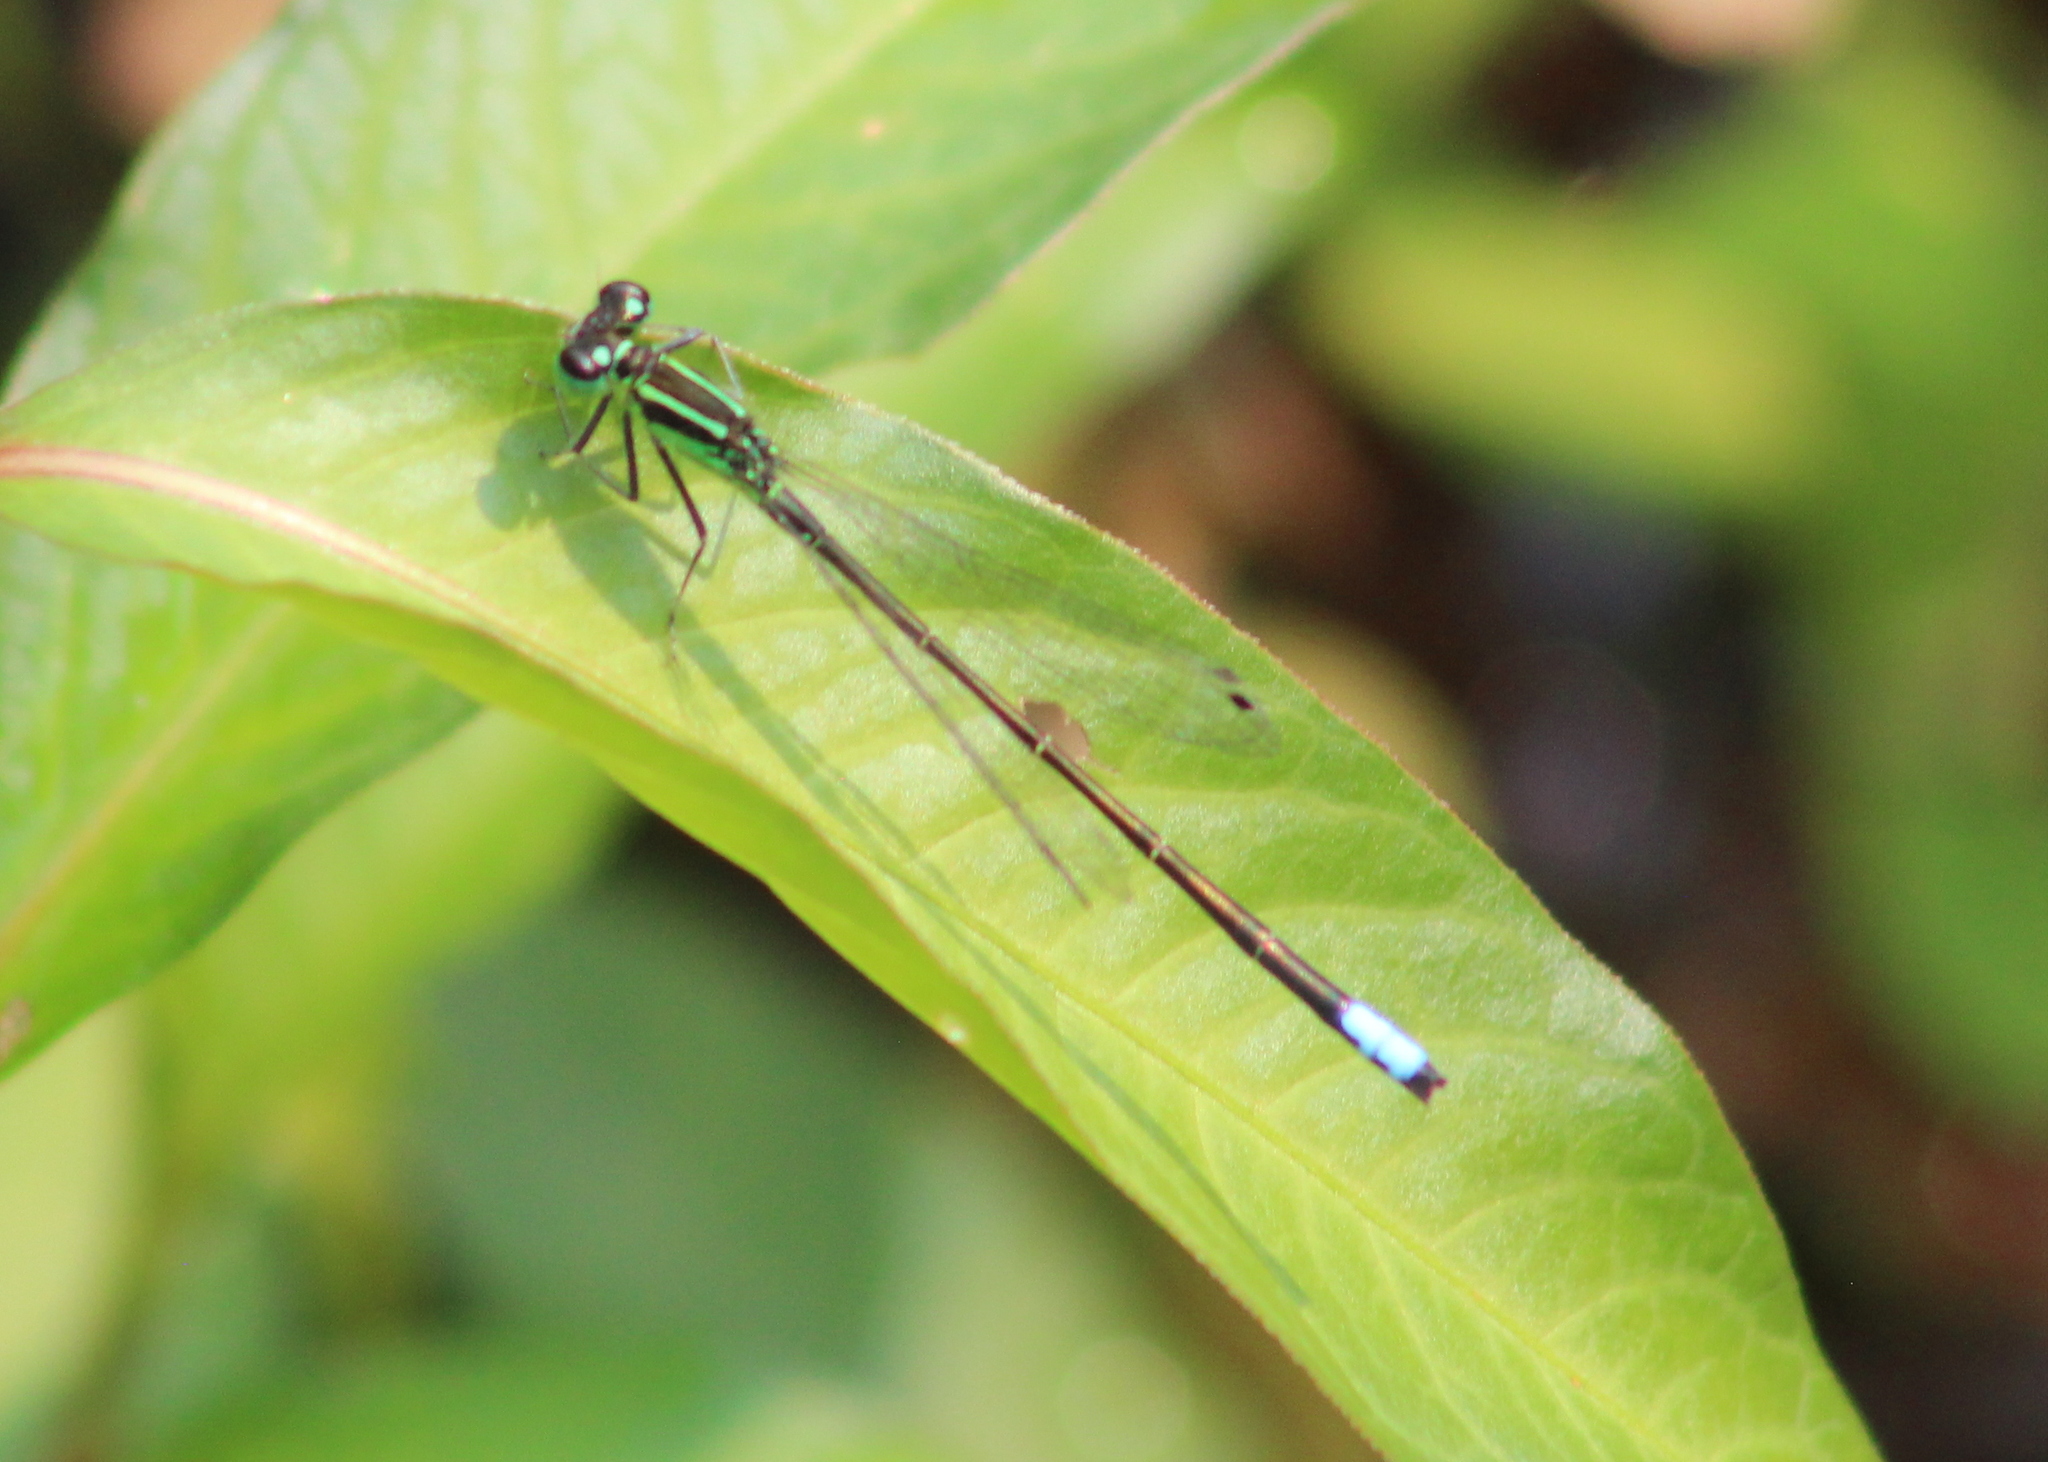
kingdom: Animalia
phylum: Arthropoda
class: Insecta
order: Odonata
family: Coenagrionidae
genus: Ischnura
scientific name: Ischnura verticalis
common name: Eastern forktail
